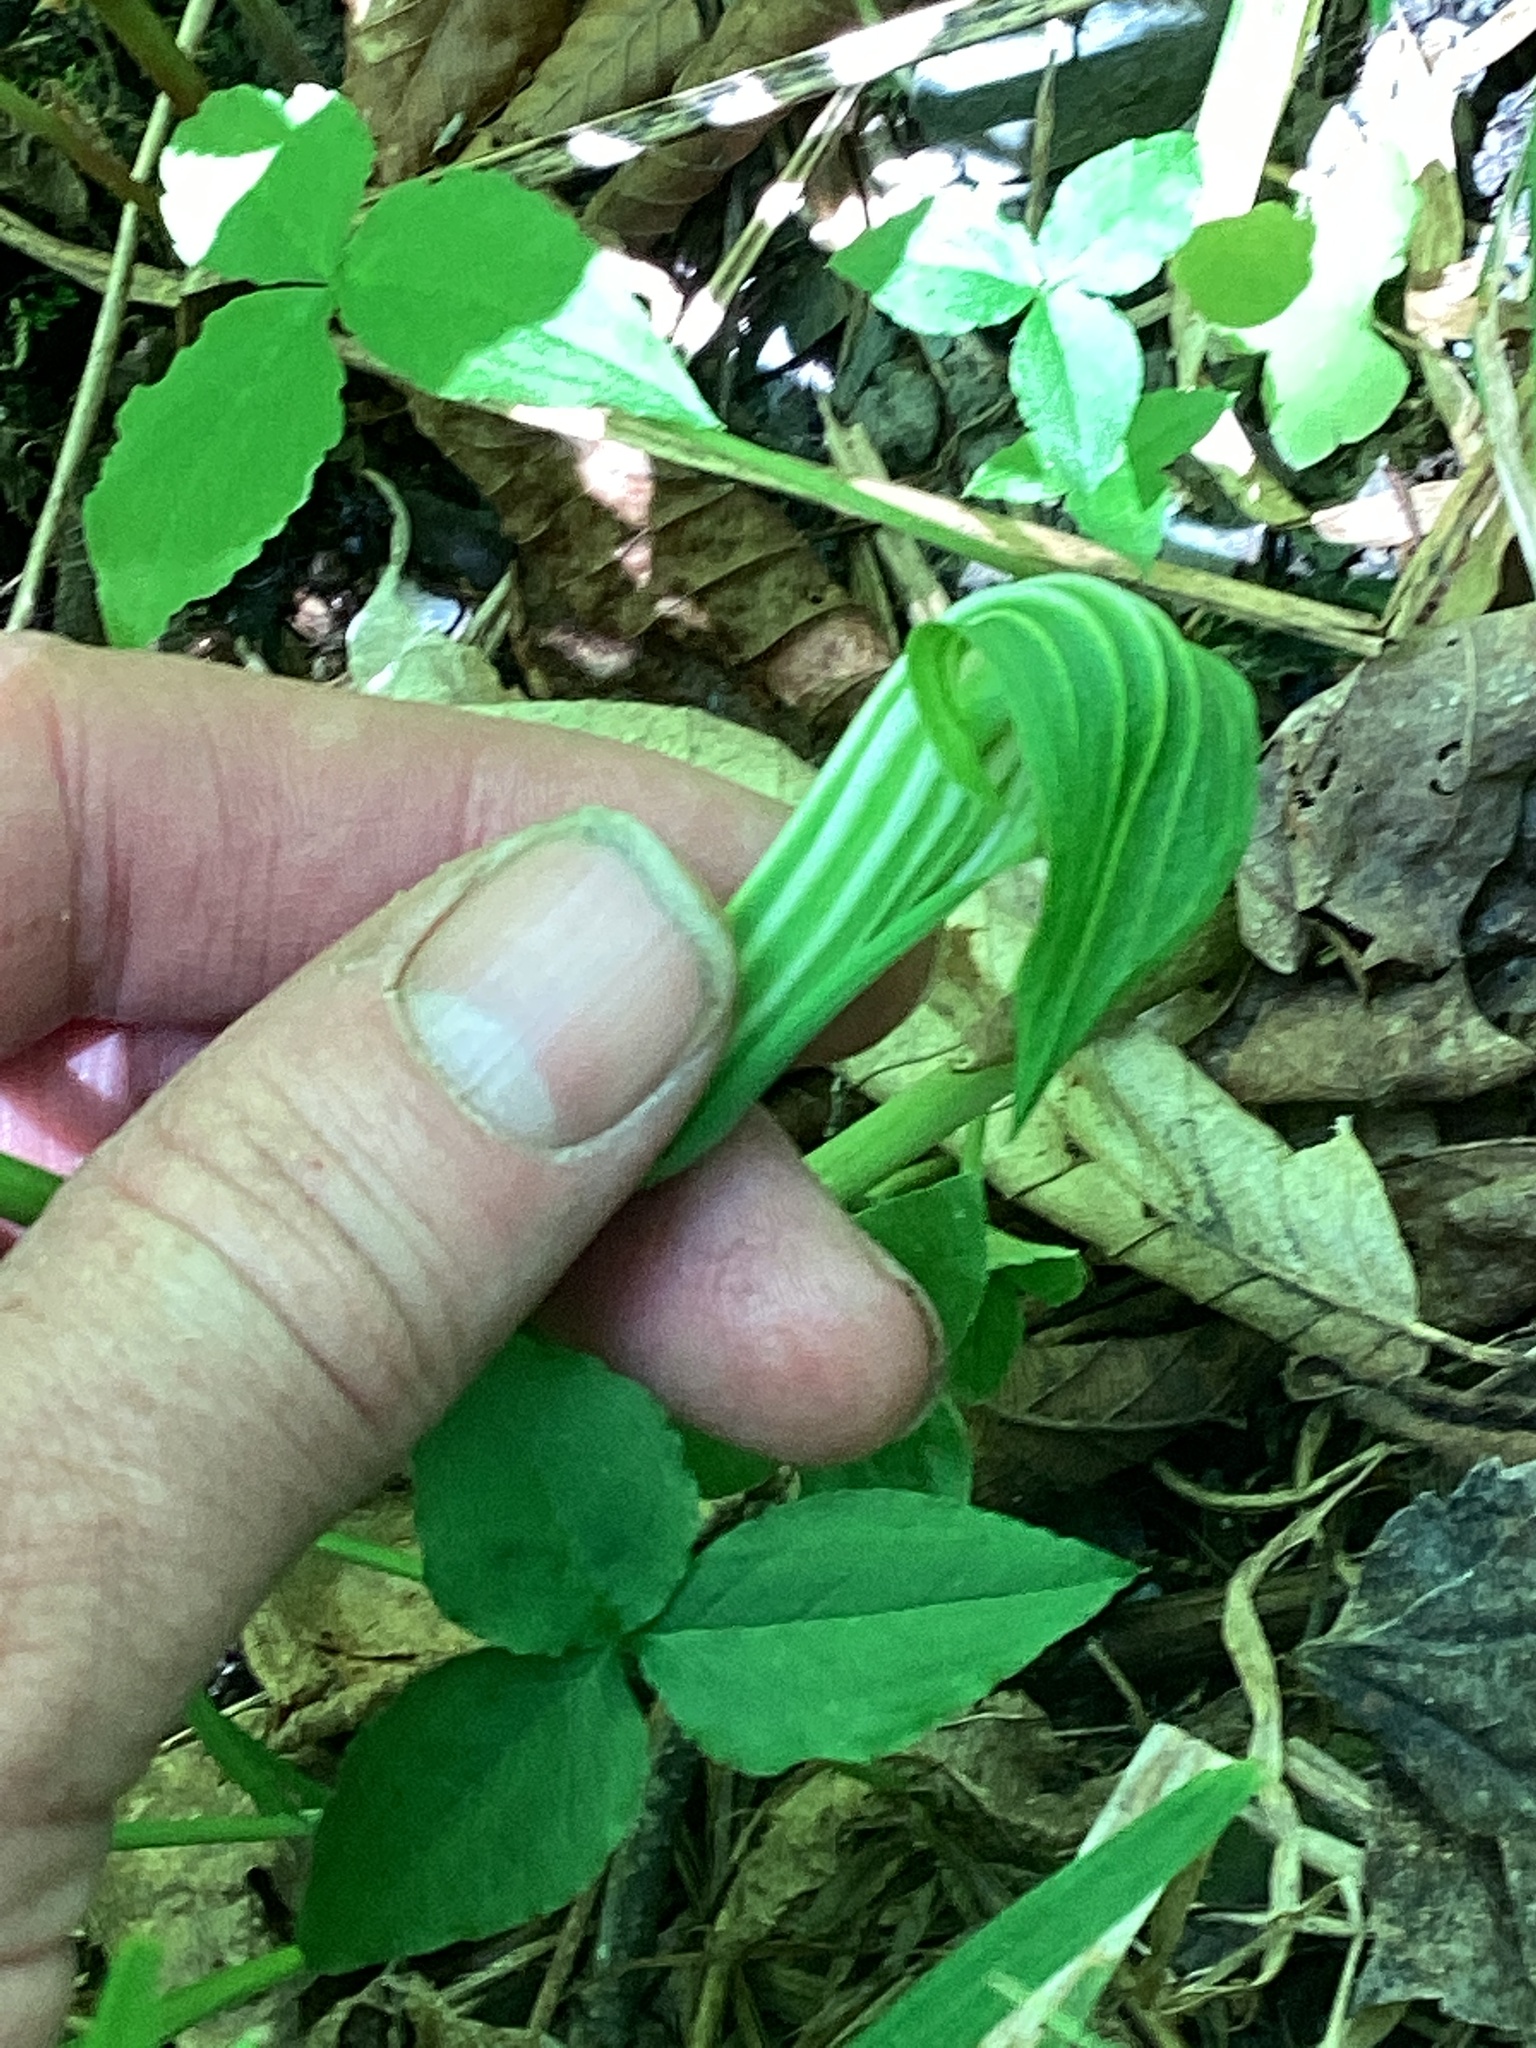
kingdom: Plantae
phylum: Tracheophyta
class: Liliopsida
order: Alismatales
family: Araceae
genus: Arisaema
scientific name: Arisaema stewardsonii
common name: Swamp jack-in-the-pulpit
